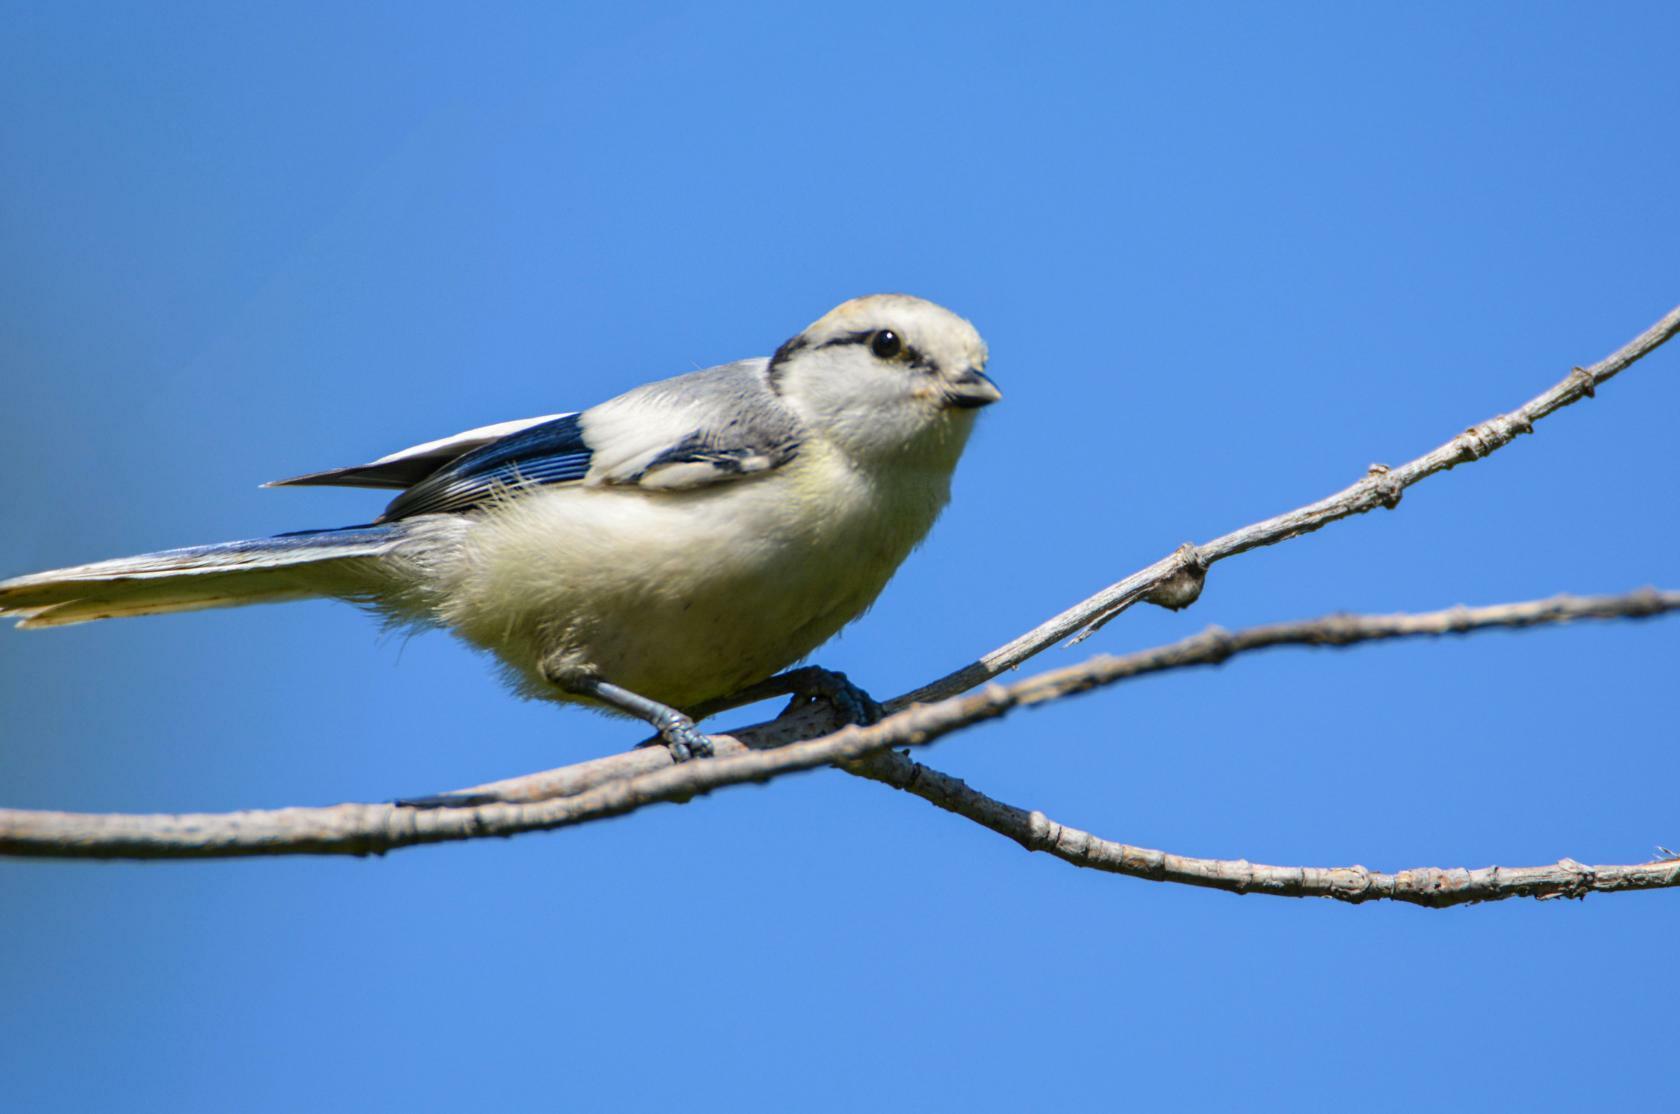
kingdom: Animalia
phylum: Chordata
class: Aves
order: Passeriformes
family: Paridae
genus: Cyanistes
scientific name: Cyanistes cyanus
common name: Azure tit
